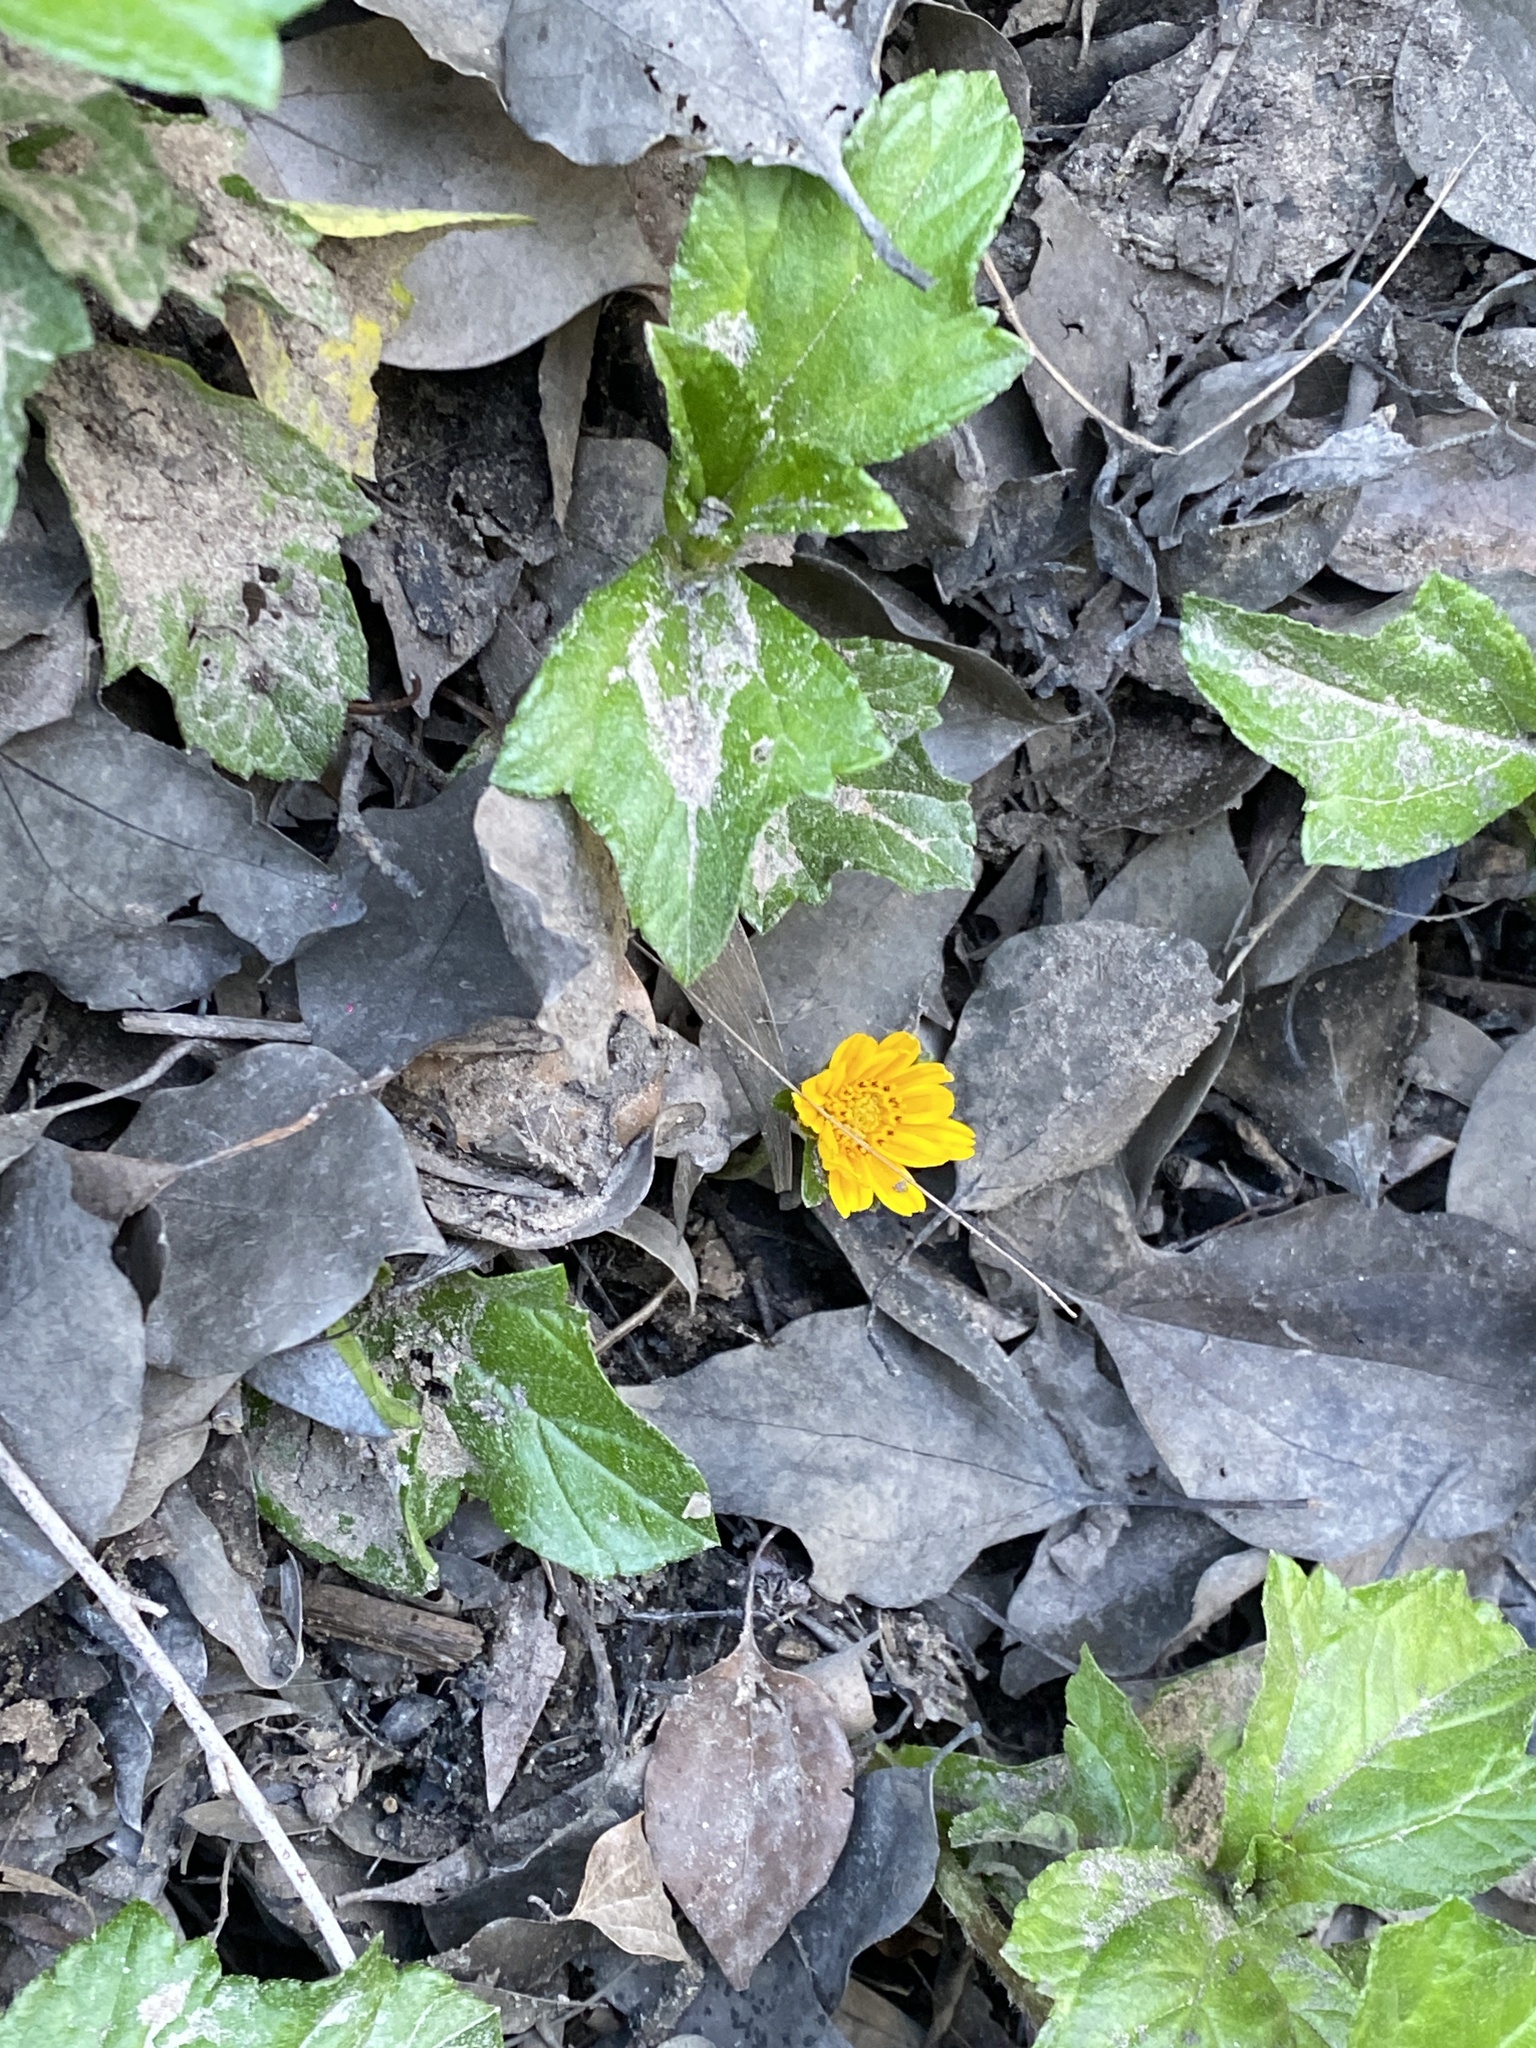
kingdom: Plantae
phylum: Tracheophyta
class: Magnoliopsida
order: Asterales
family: Asteraceae
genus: Sphagneticola
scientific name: Sphagneticola trilobata
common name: Bay biscayne creeping-oxeye
